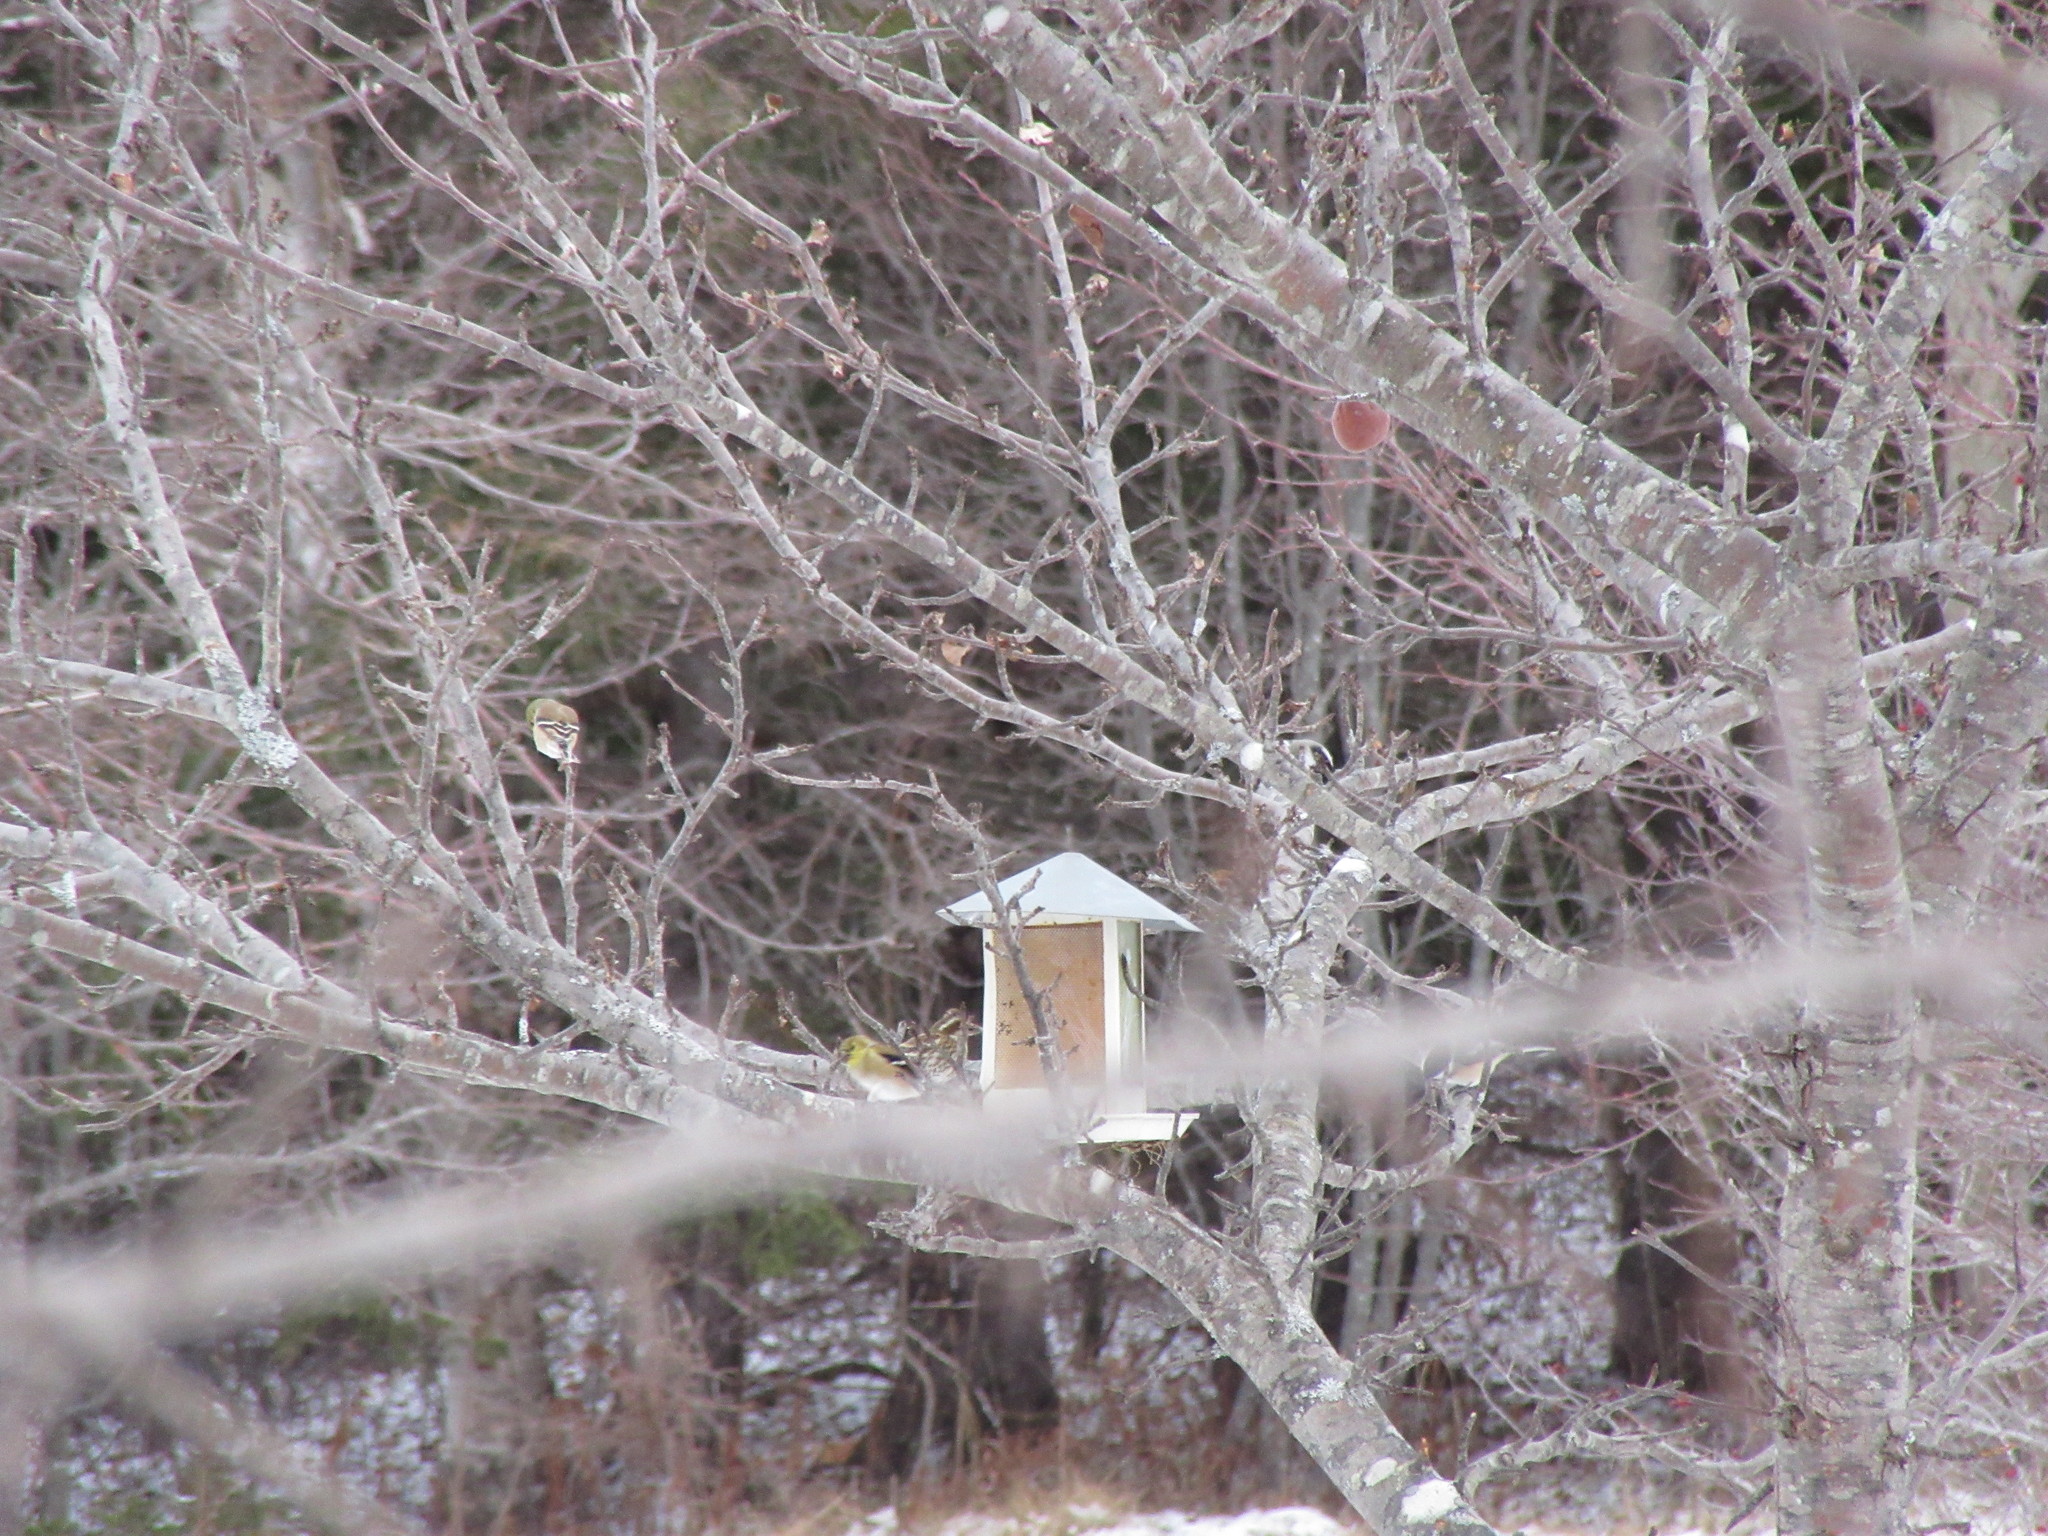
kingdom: Animalia
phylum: Chordata
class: Aves
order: Passeriformes
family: Fringillidae
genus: Spinus
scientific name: Spinus tristis
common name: American goldfinch
